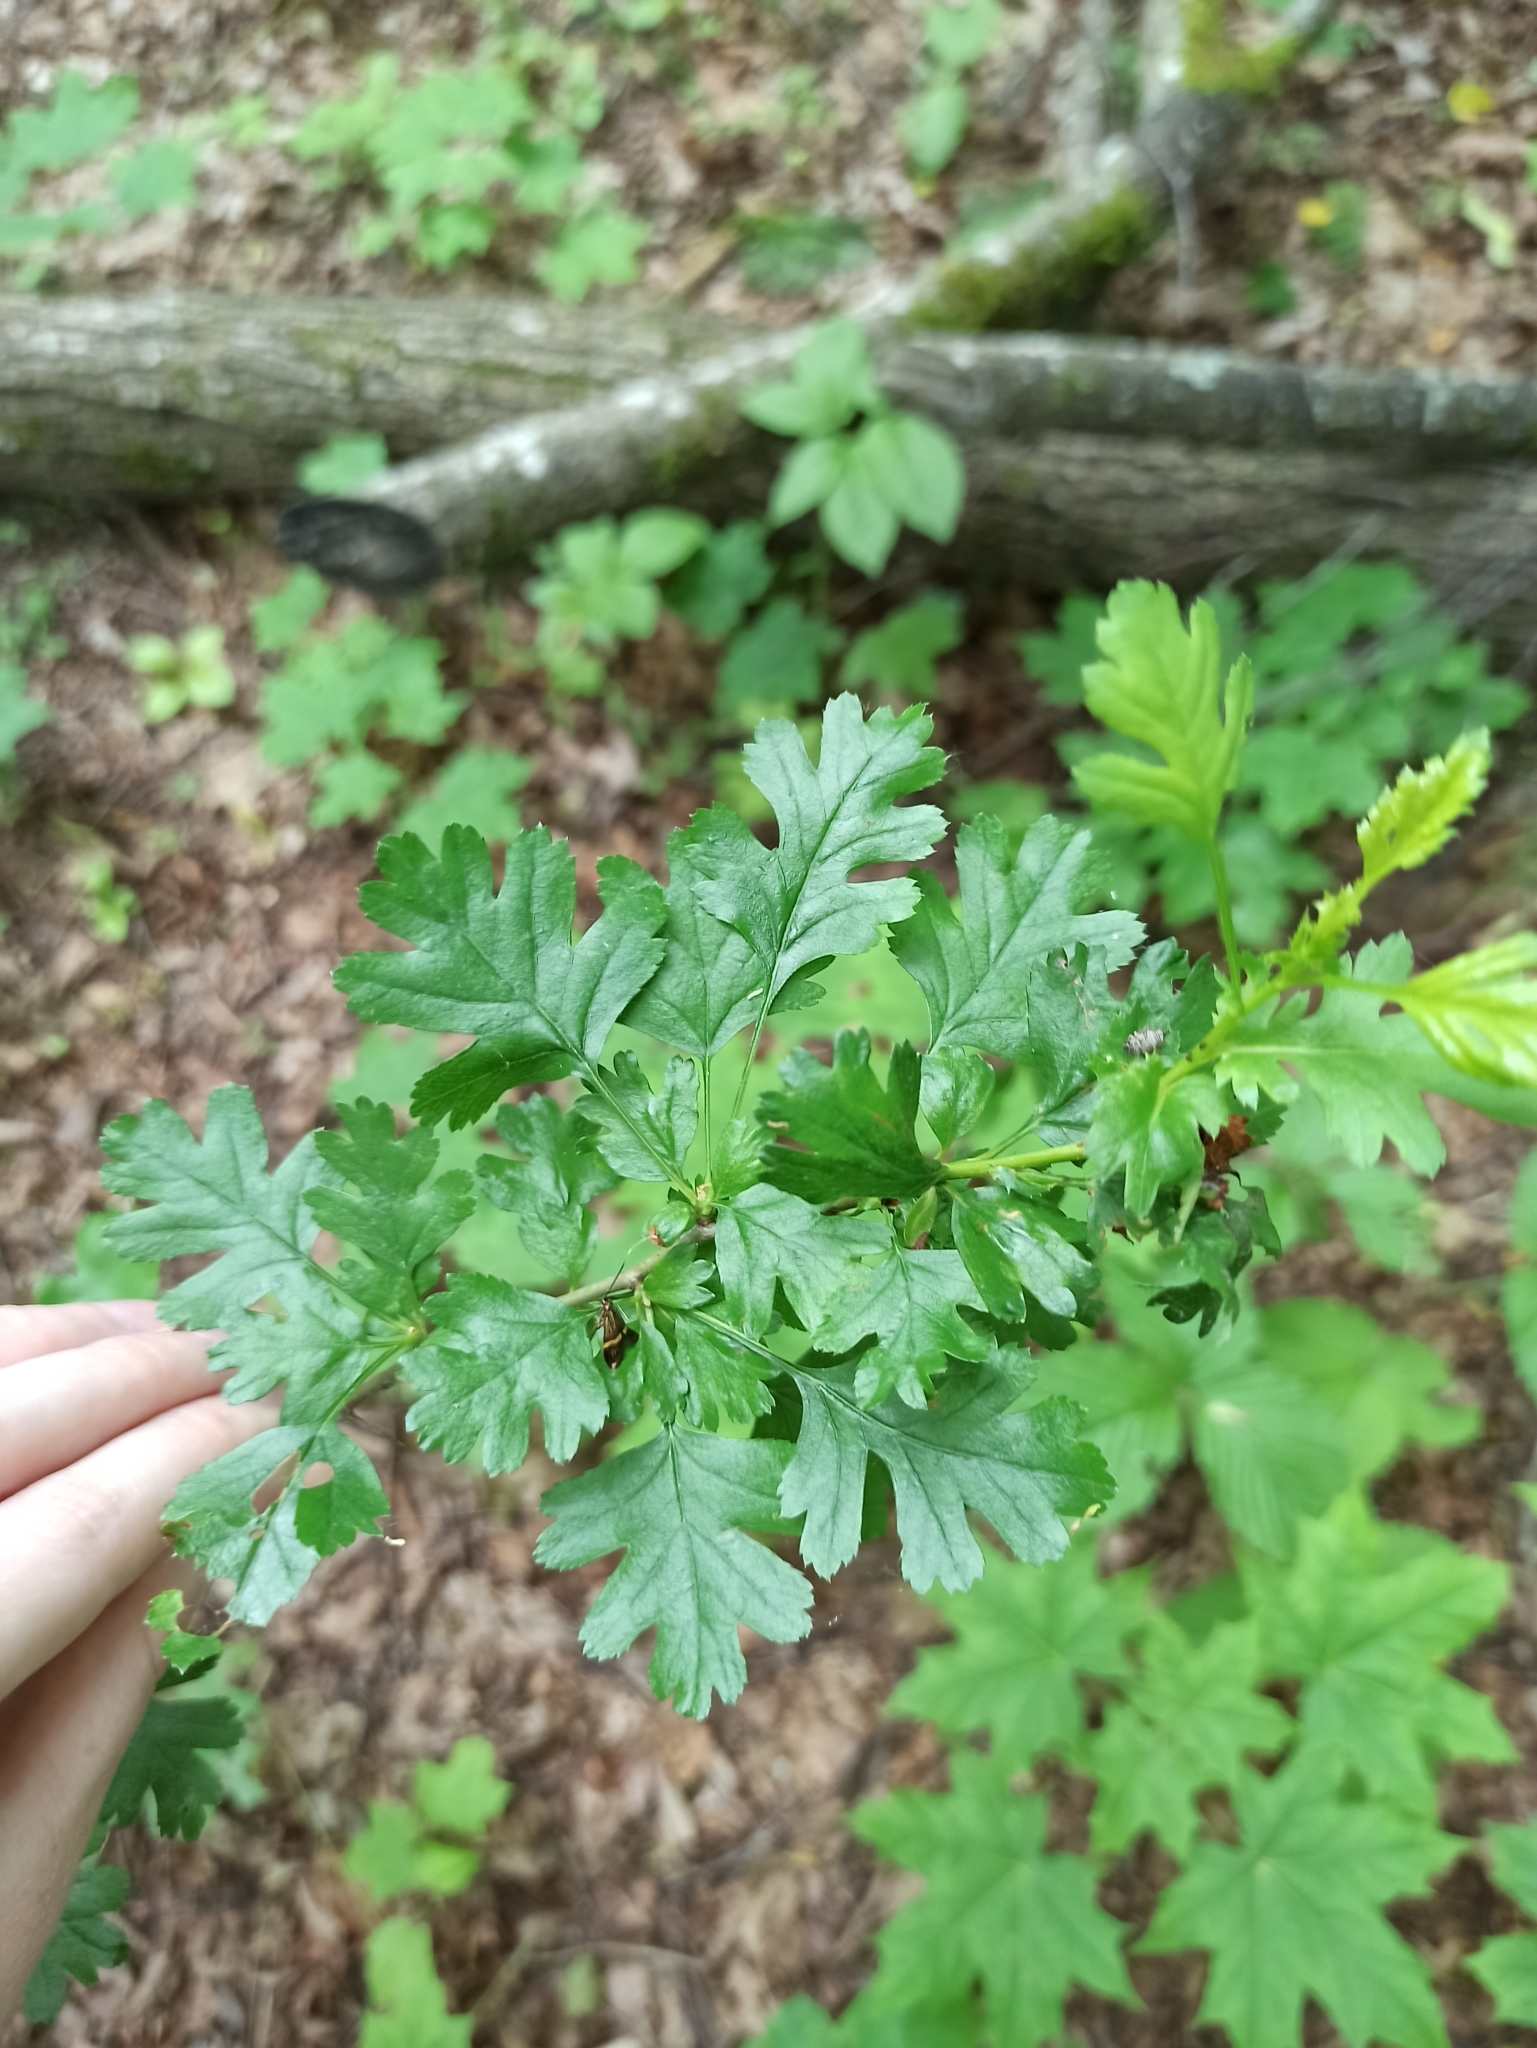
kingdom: Plantae
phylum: Tracheophyta
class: Magnoliopsida
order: Rosales
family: Rosaceae
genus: Crataegus
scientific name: Crataegus monogyna
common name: Hawthorn
